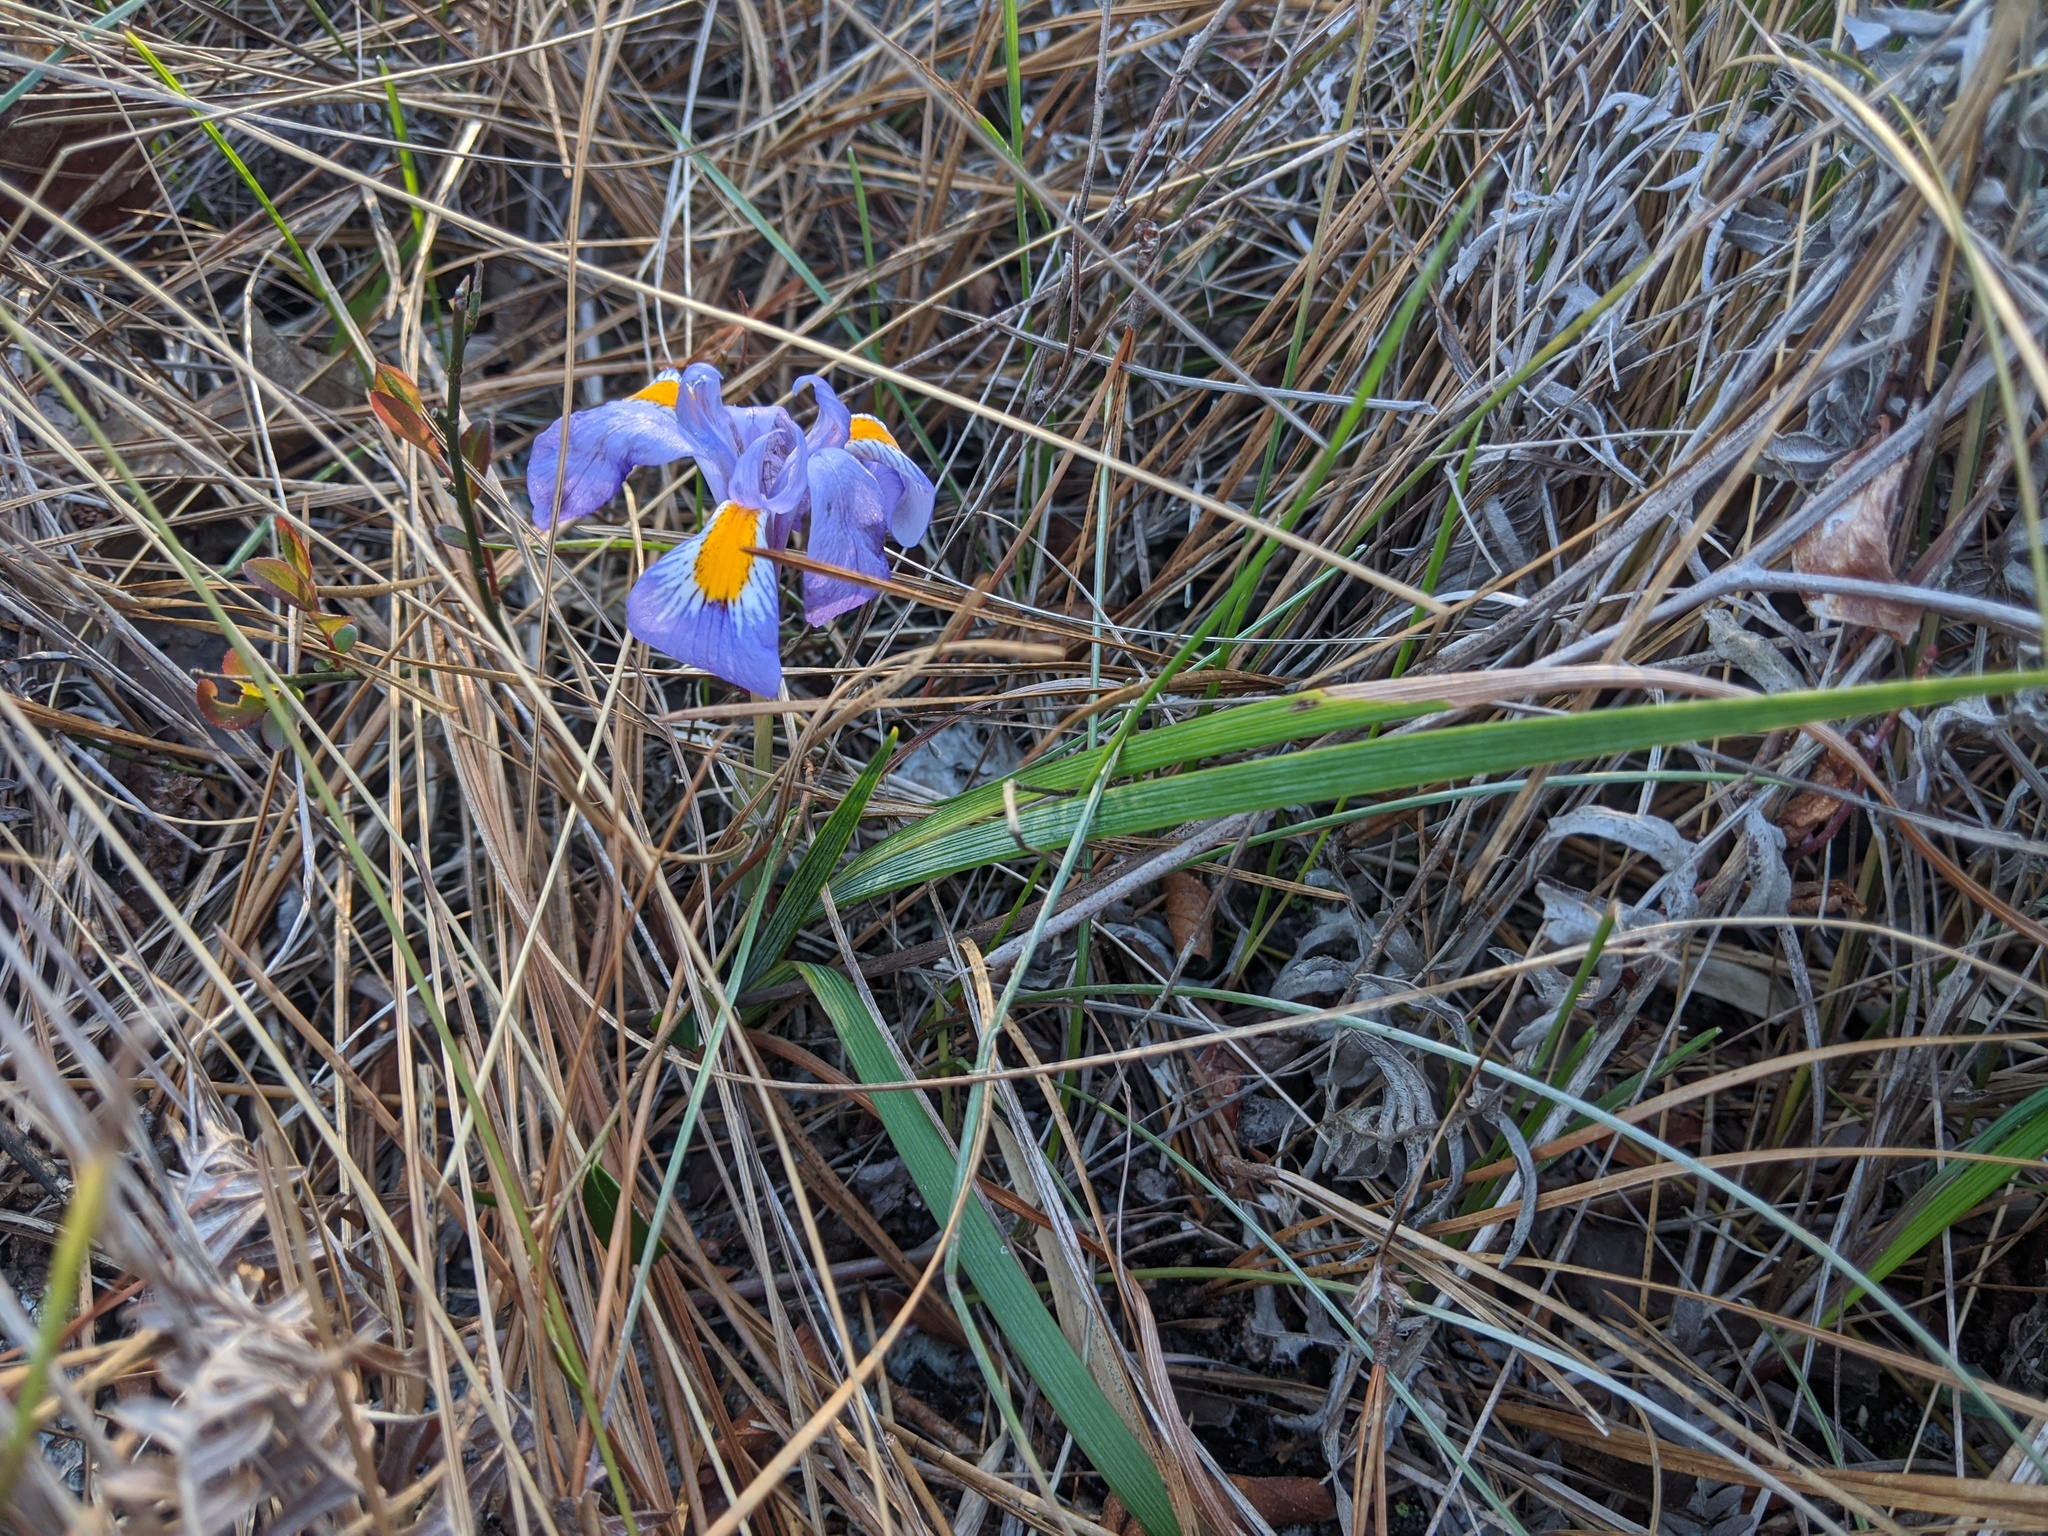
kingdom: Plantae
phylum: Tracheophyta
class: Liliopsida
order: Asparagales
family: Iridaceae
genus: Iris
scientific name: Iris verna
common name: Dwarf iris
